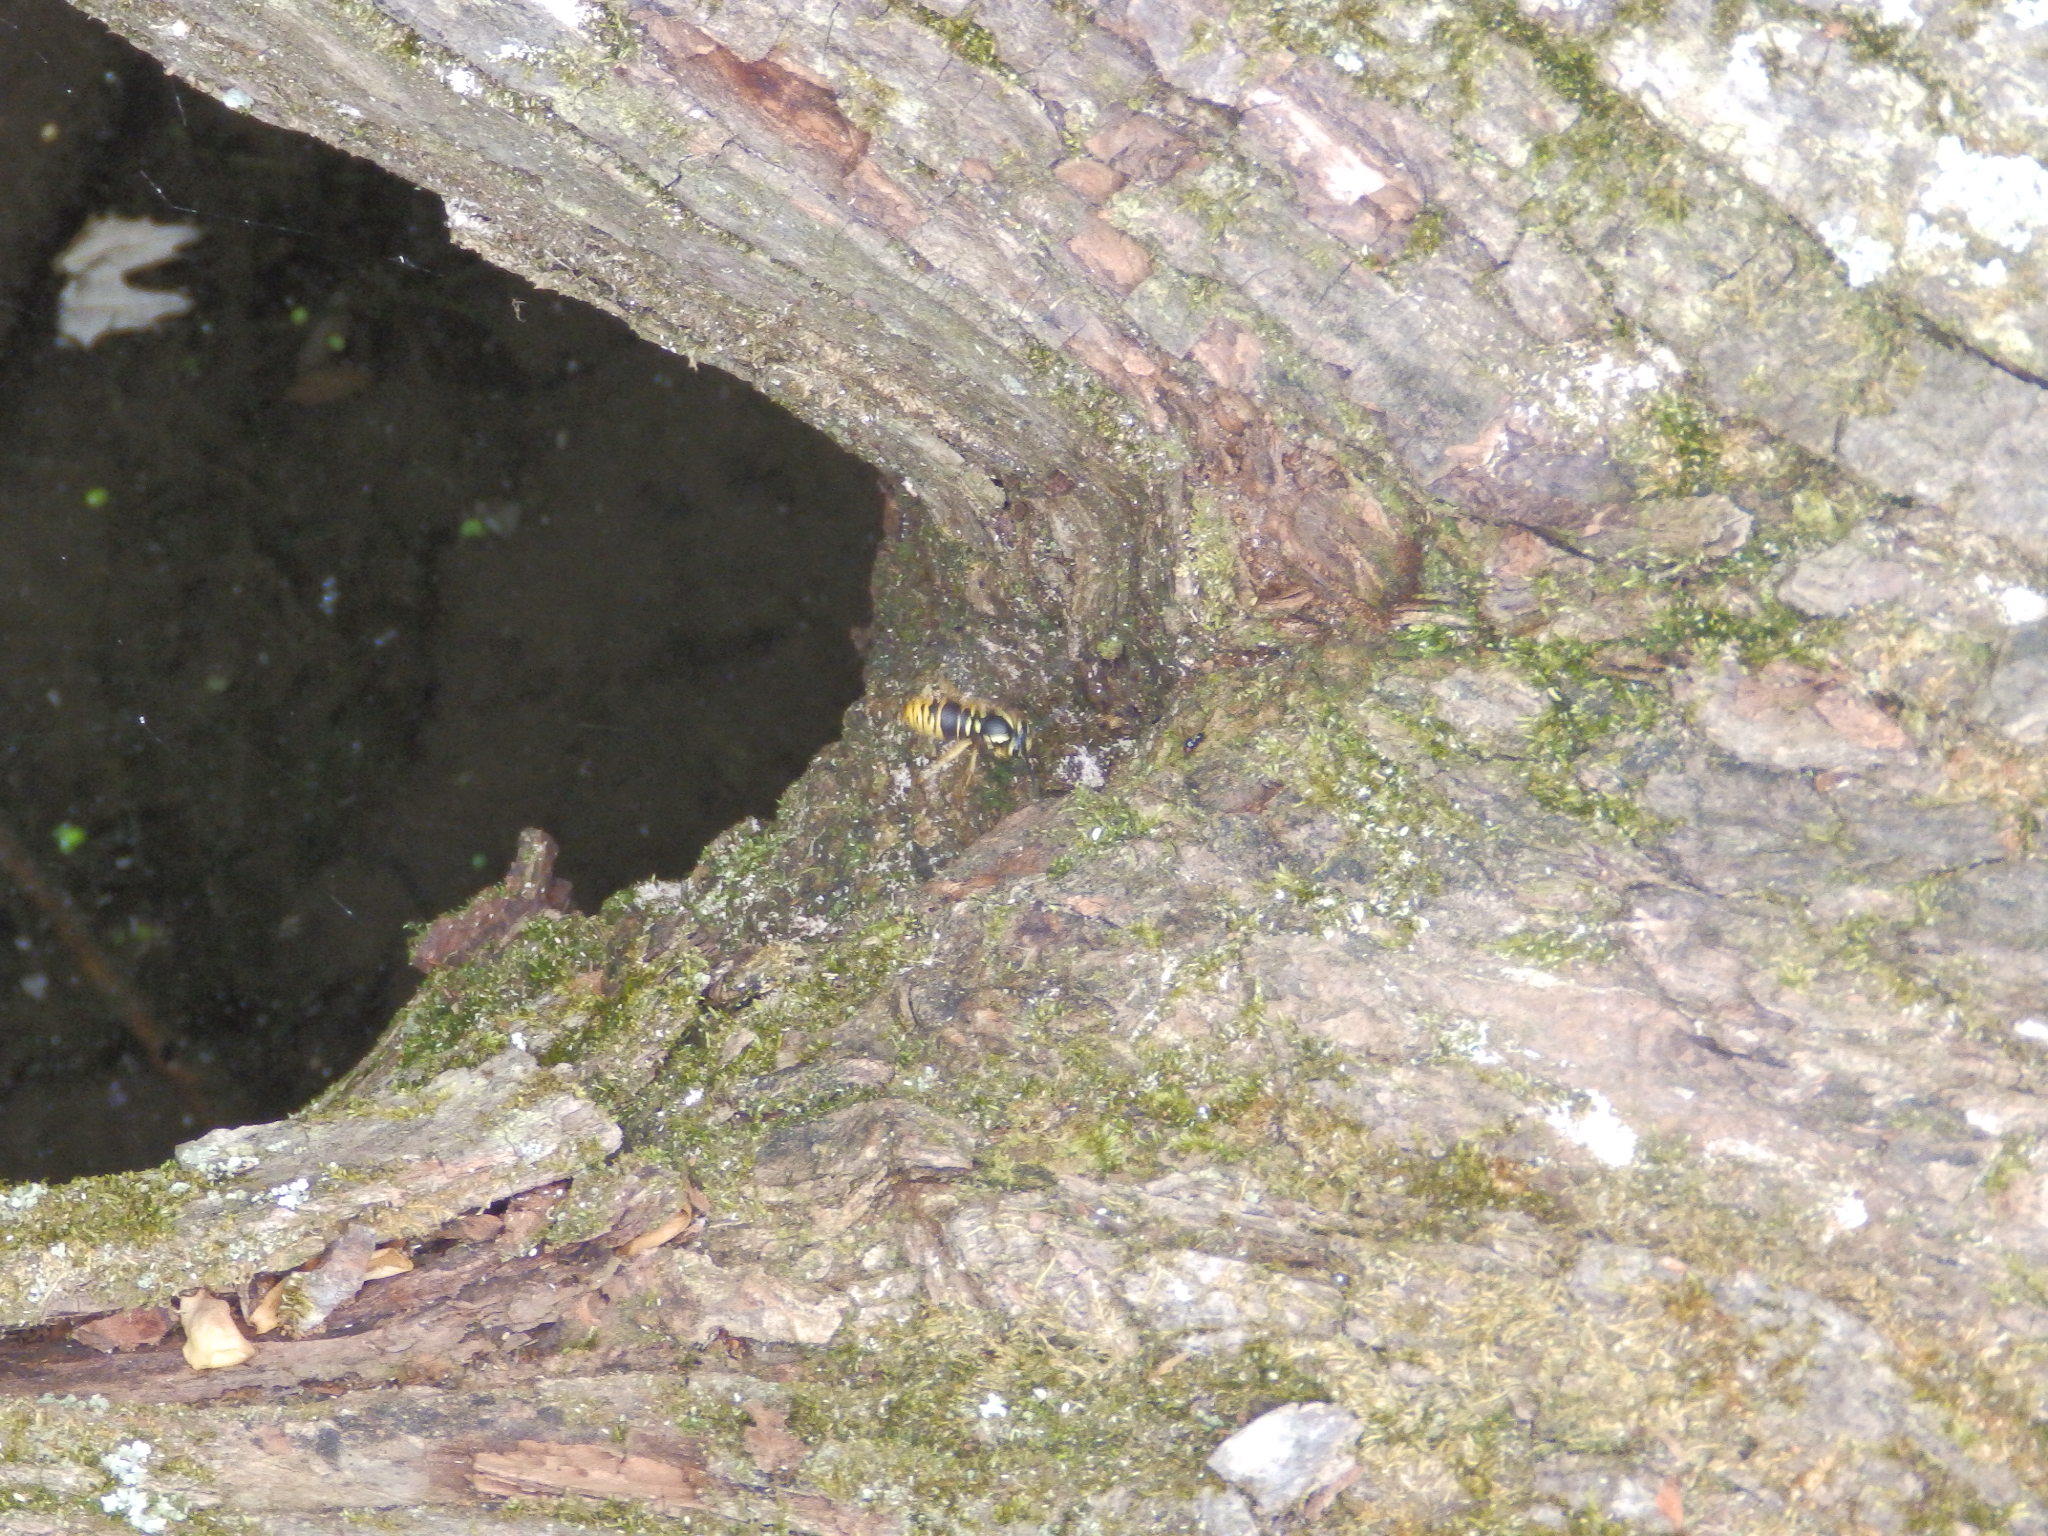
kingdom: Animalia
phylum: Arthropoda
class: Insecta
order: Hymenoptera
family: Vespidae
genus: Vespula
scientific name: Vespula vidua
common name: Widow yellowjacket
